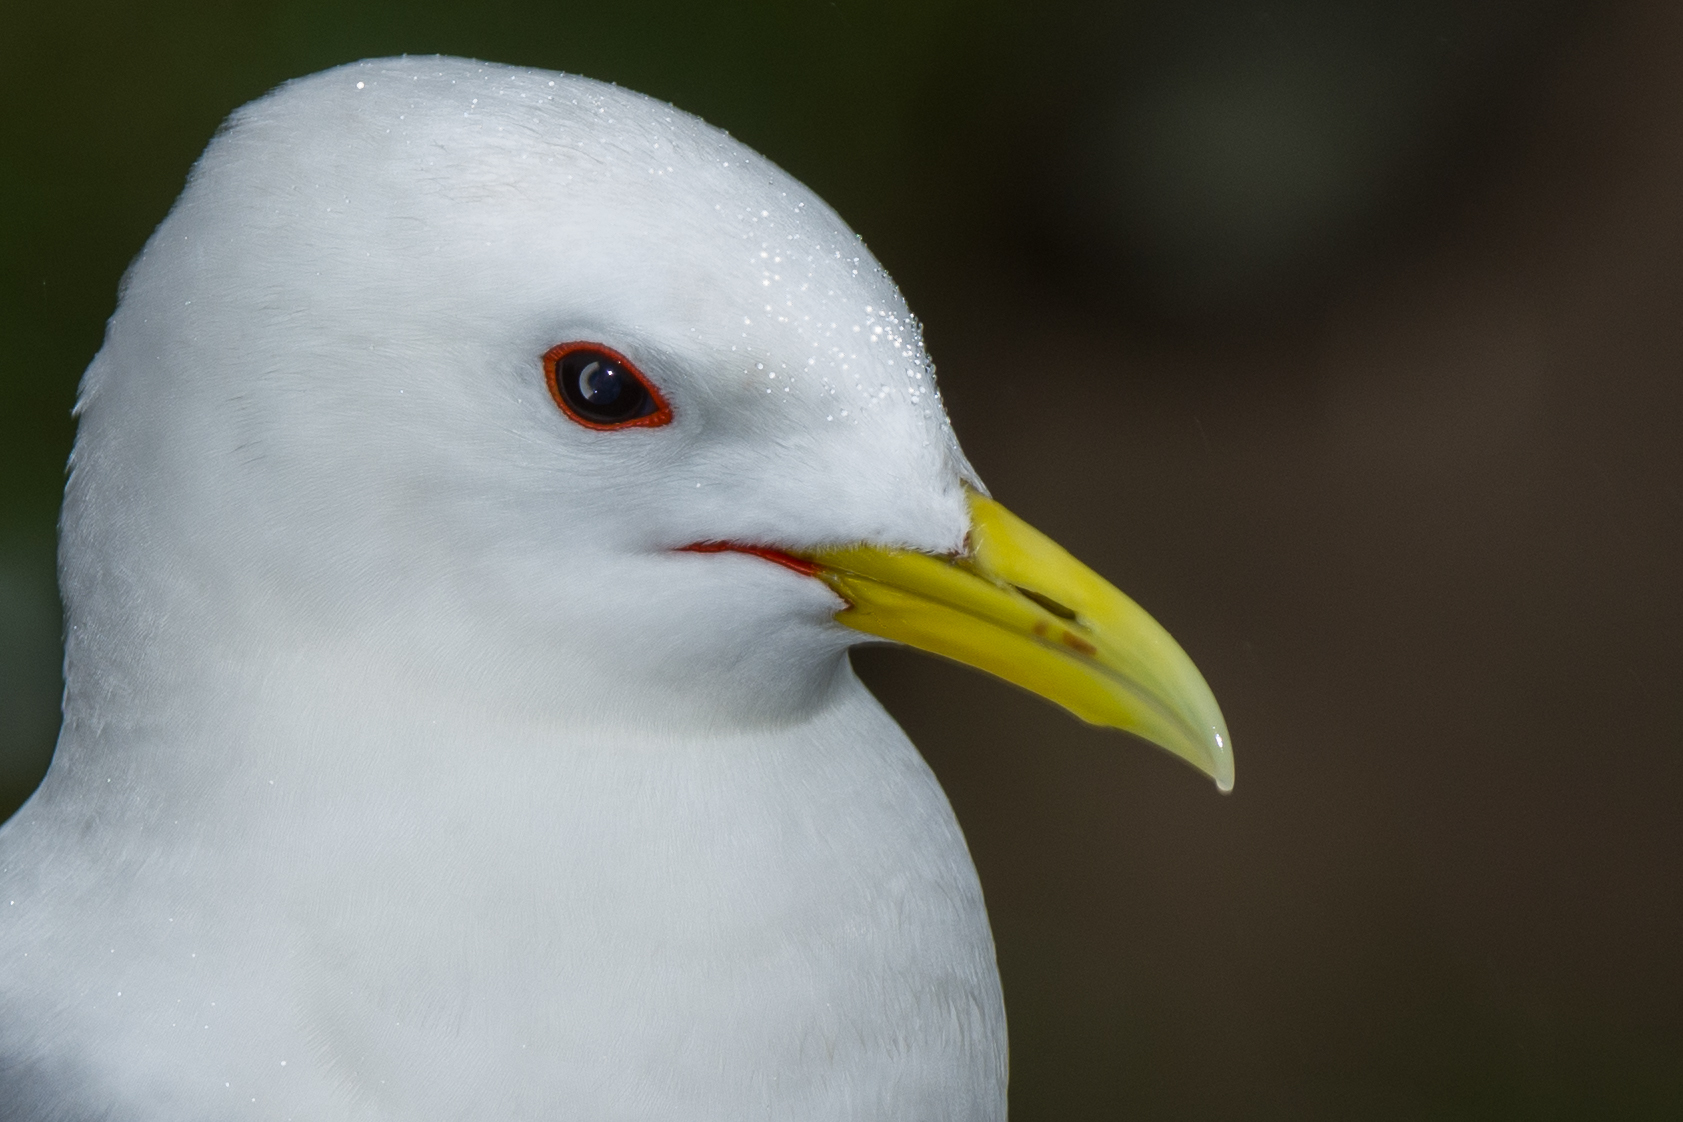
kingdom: Animalia
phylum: Chordata
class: Aves
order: Charadriiformes
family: Laridae
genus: Rissa
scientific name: Rissa tridactyla
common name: Black-legged kittiwake
